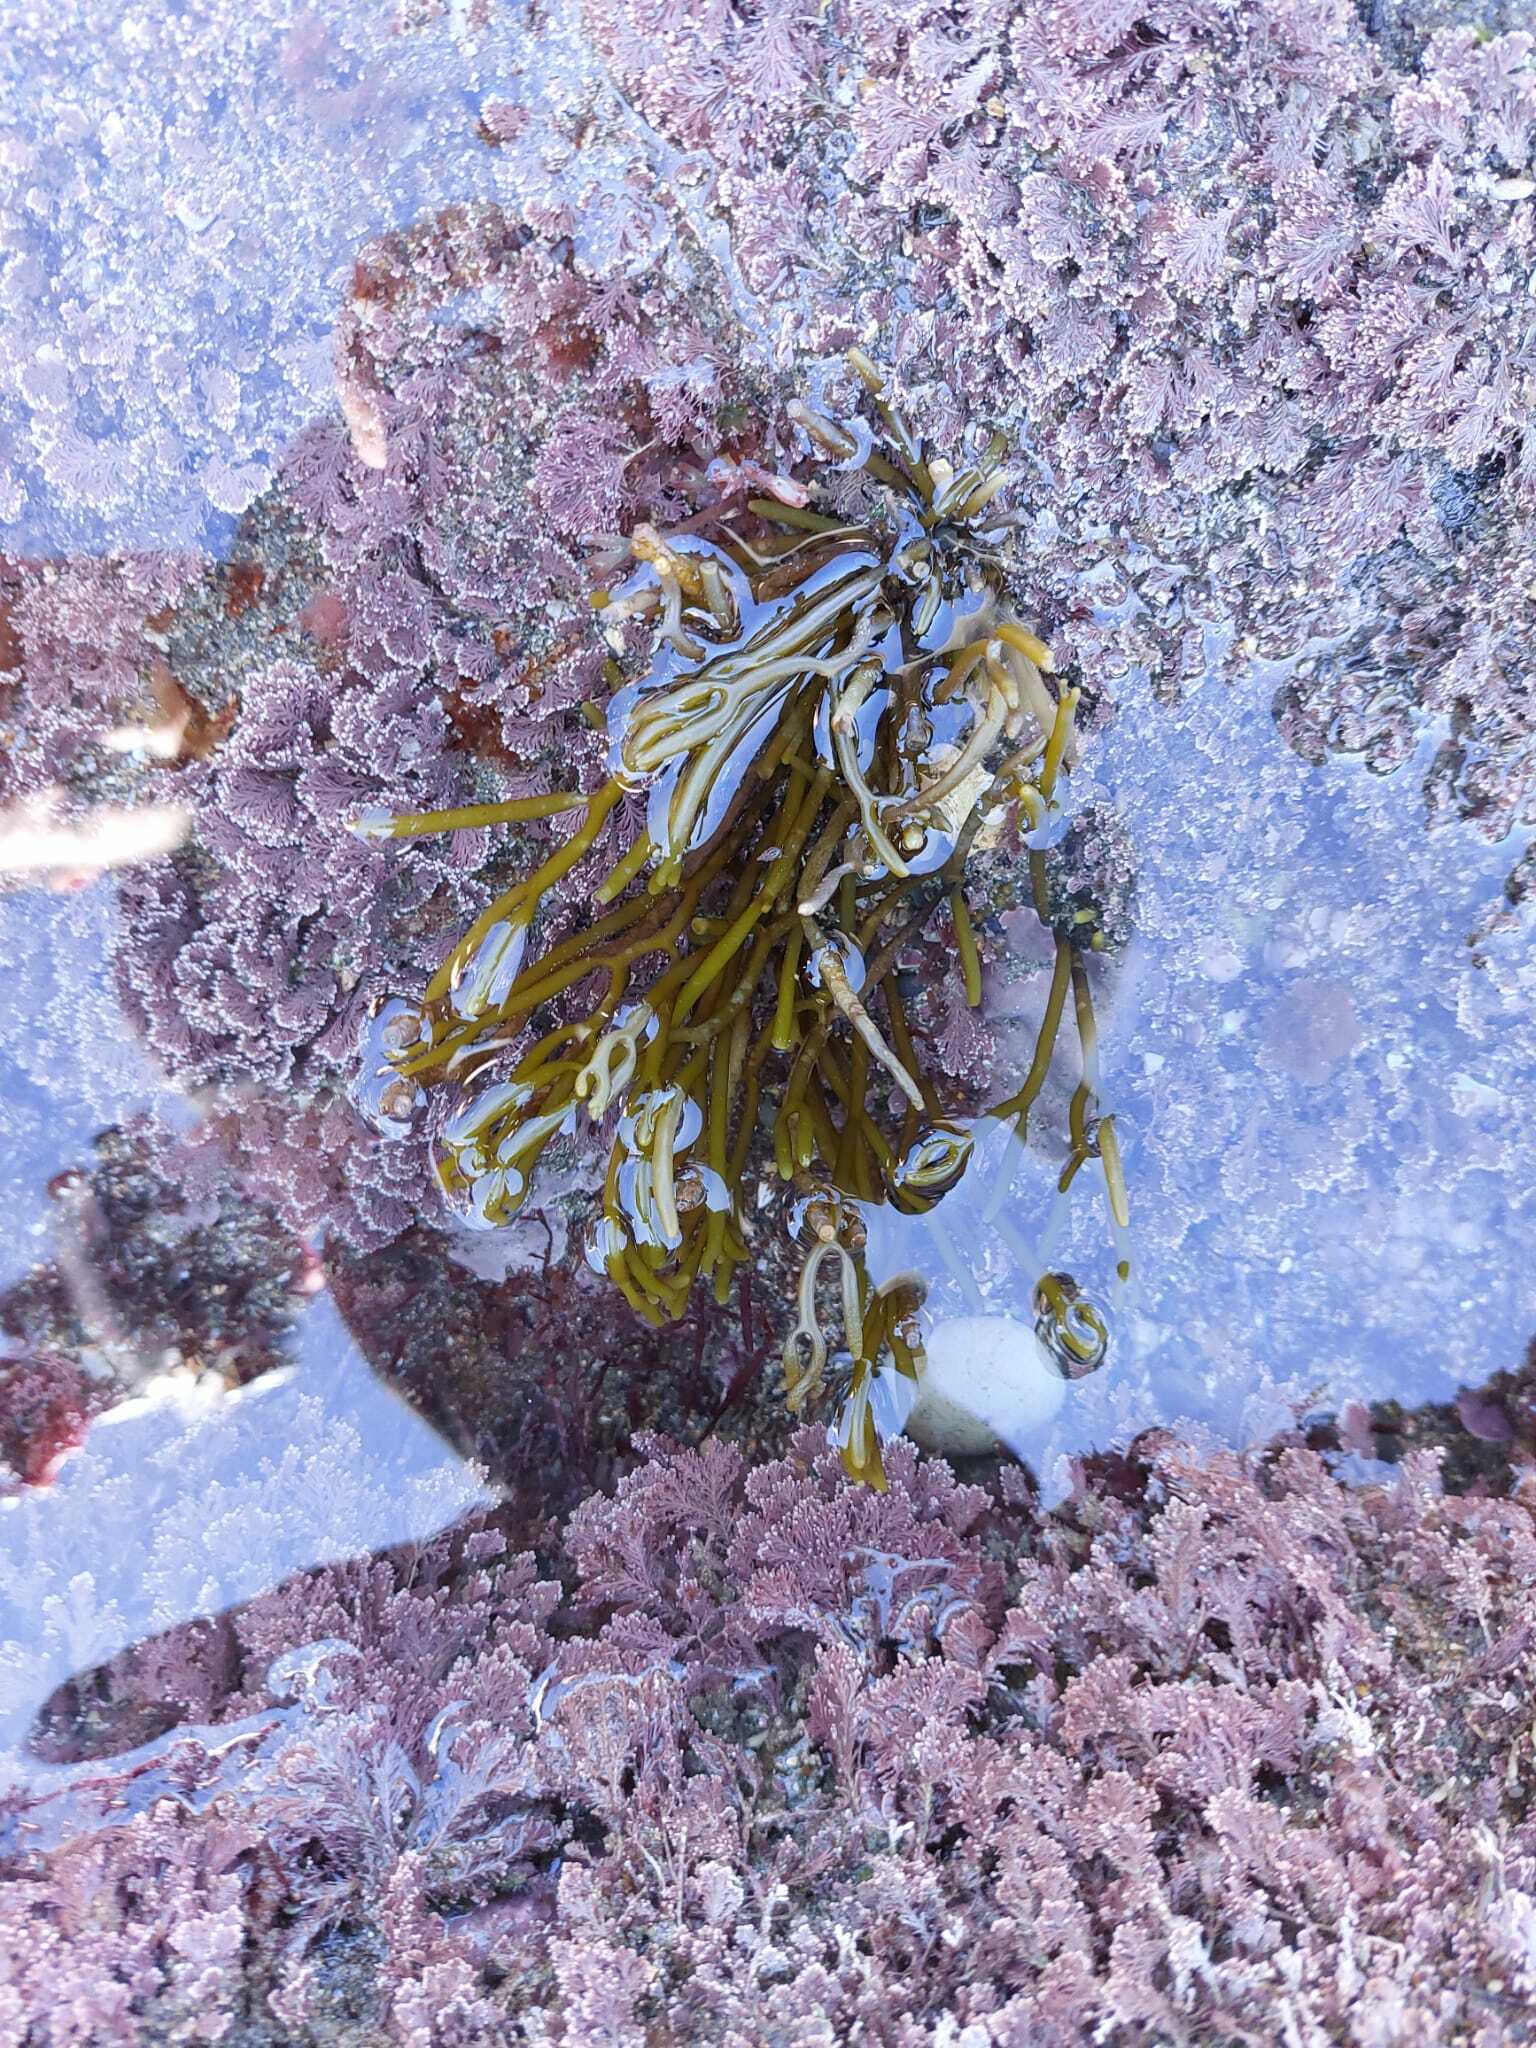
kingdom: Chromista
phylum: Ochrophyta
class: Phaeophyceae
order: Fucales
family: Sargassaceae
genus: Bifurcaria
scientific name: Bifurcaria bifurcata
